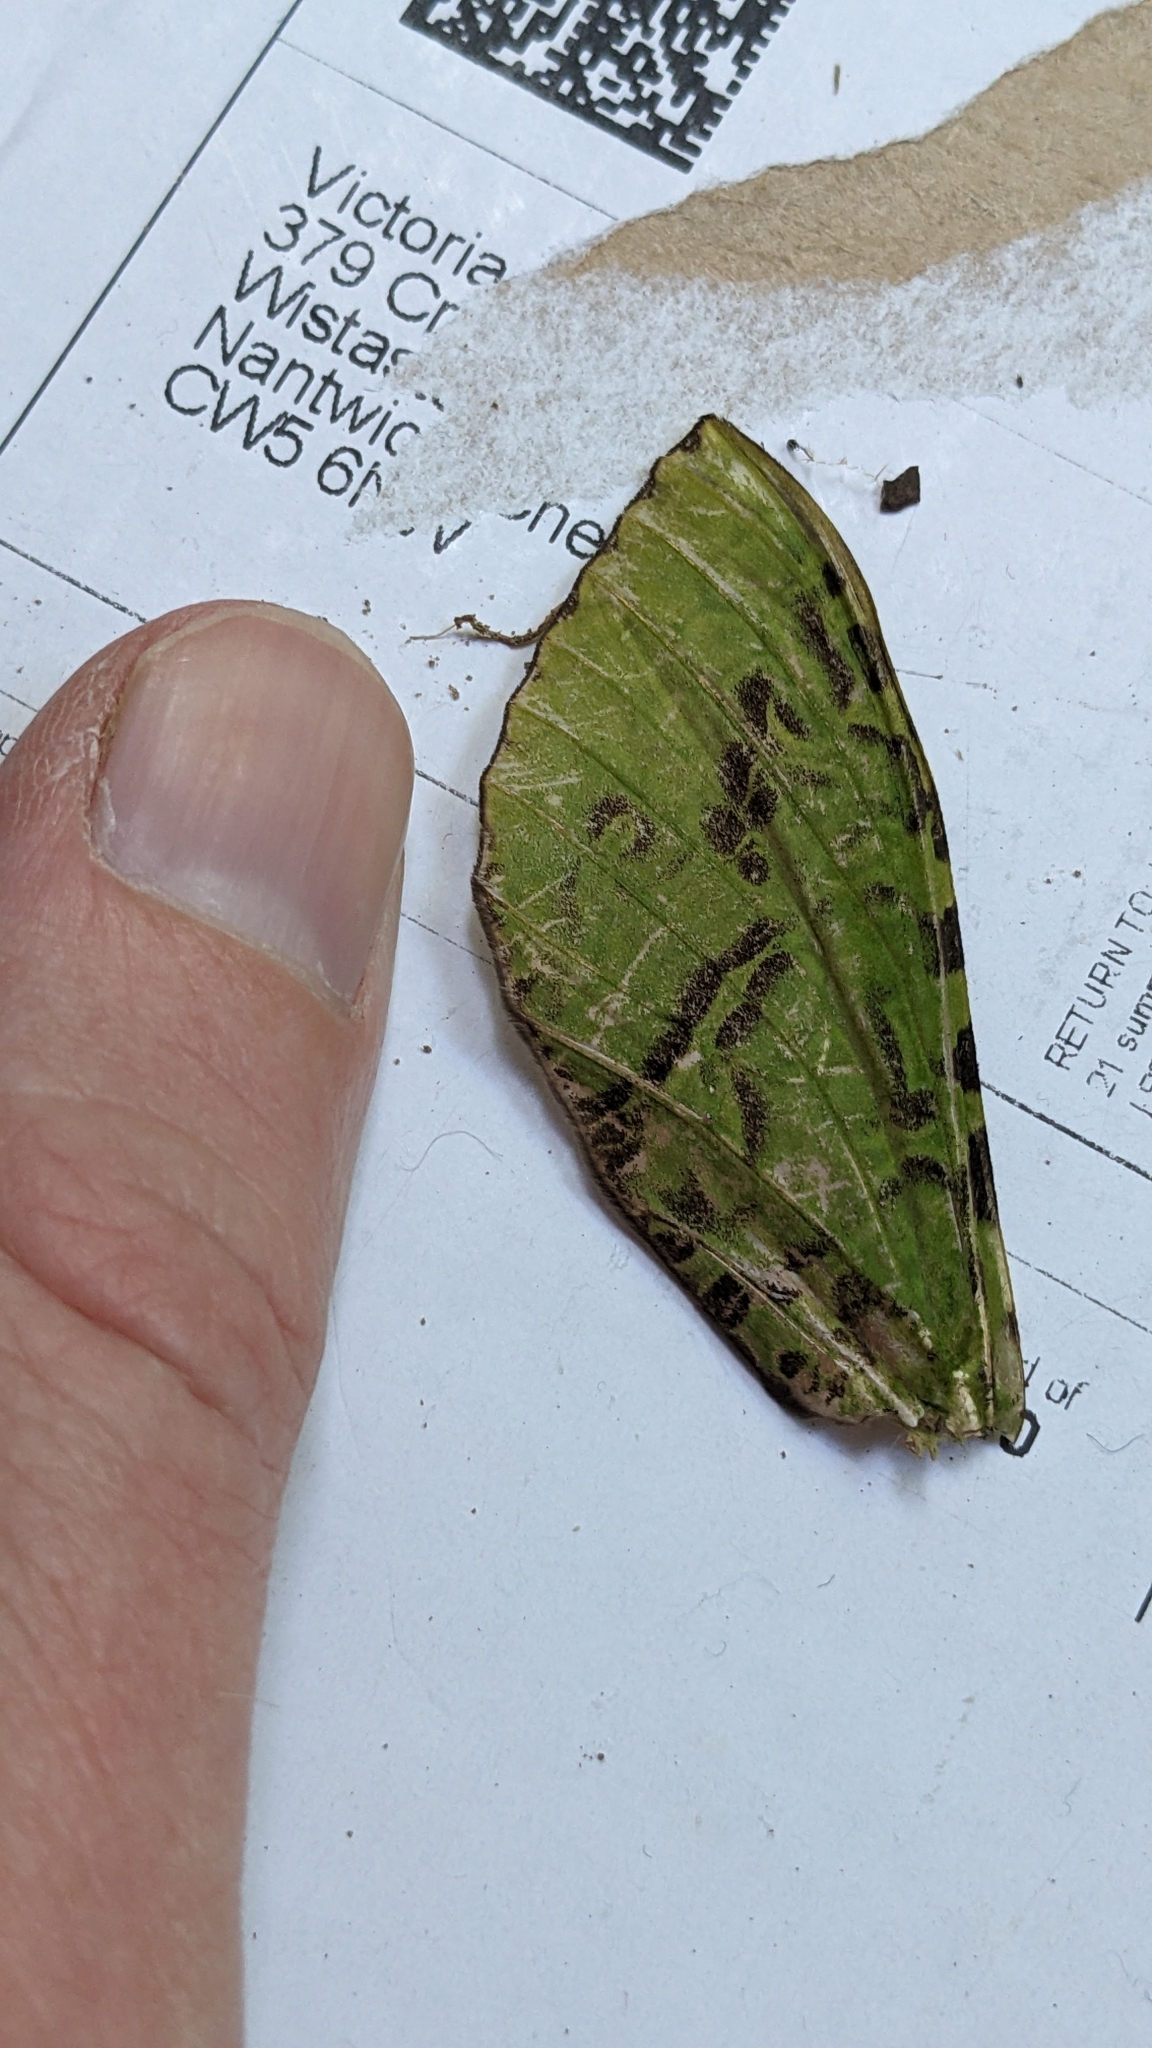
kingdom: Animalia
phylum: Arthropoda
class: Insecta
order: Lepidoptera
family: Hepialidae
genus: Aenetus
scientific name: Aenetus virescens
